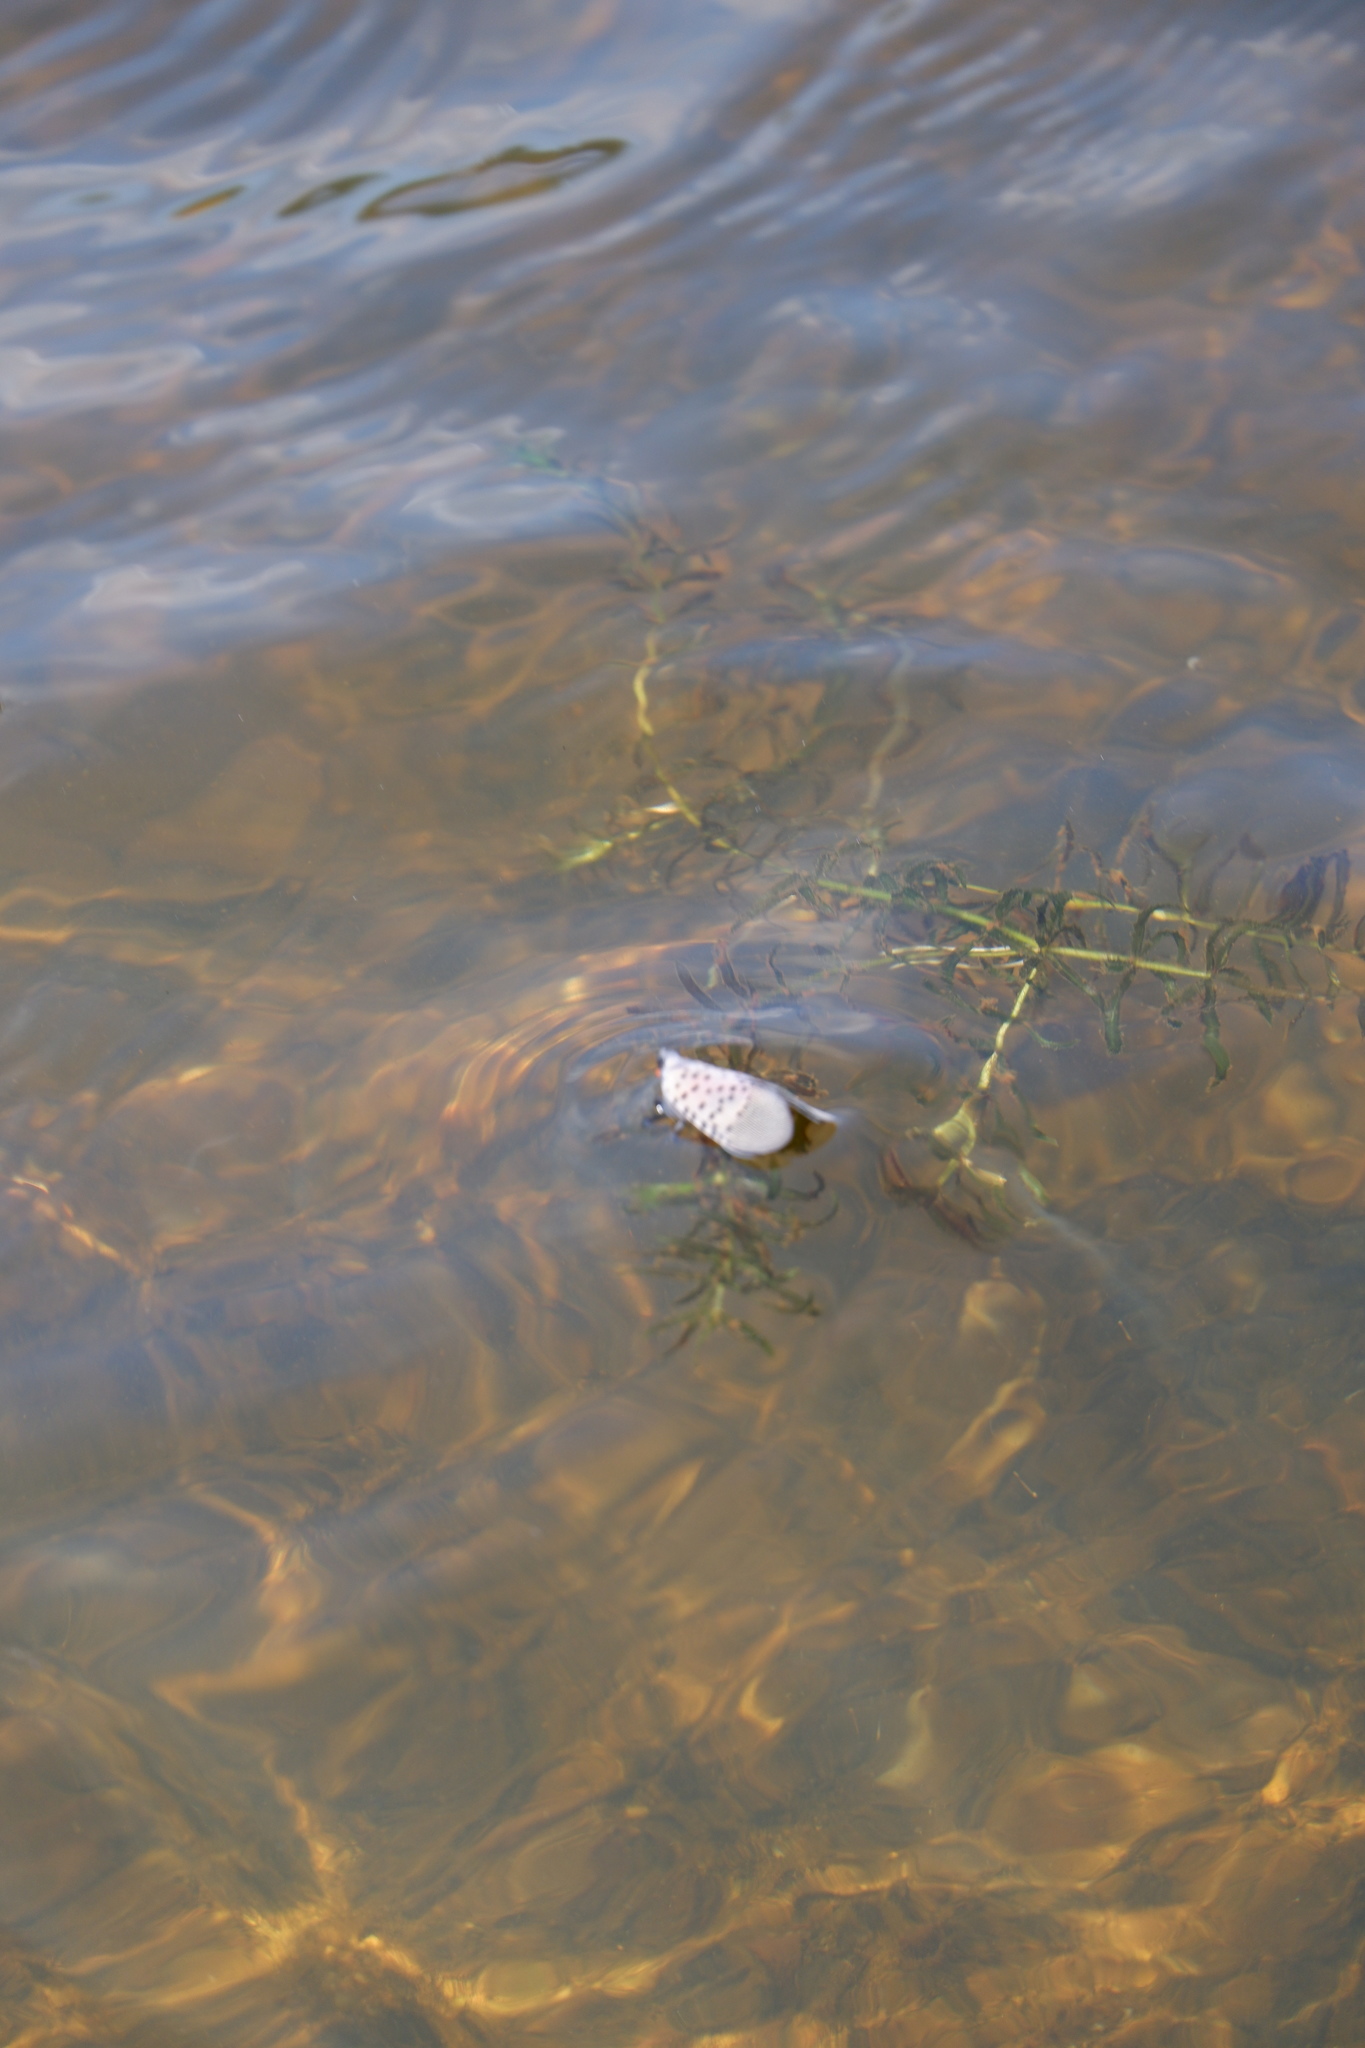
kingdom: Animalia
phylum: Arthropoda
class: Insecta
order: Hemiptera
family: Fulgoridae
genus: Lycorma
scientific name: Lycorma delicatula
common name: Spotted lanternfly
